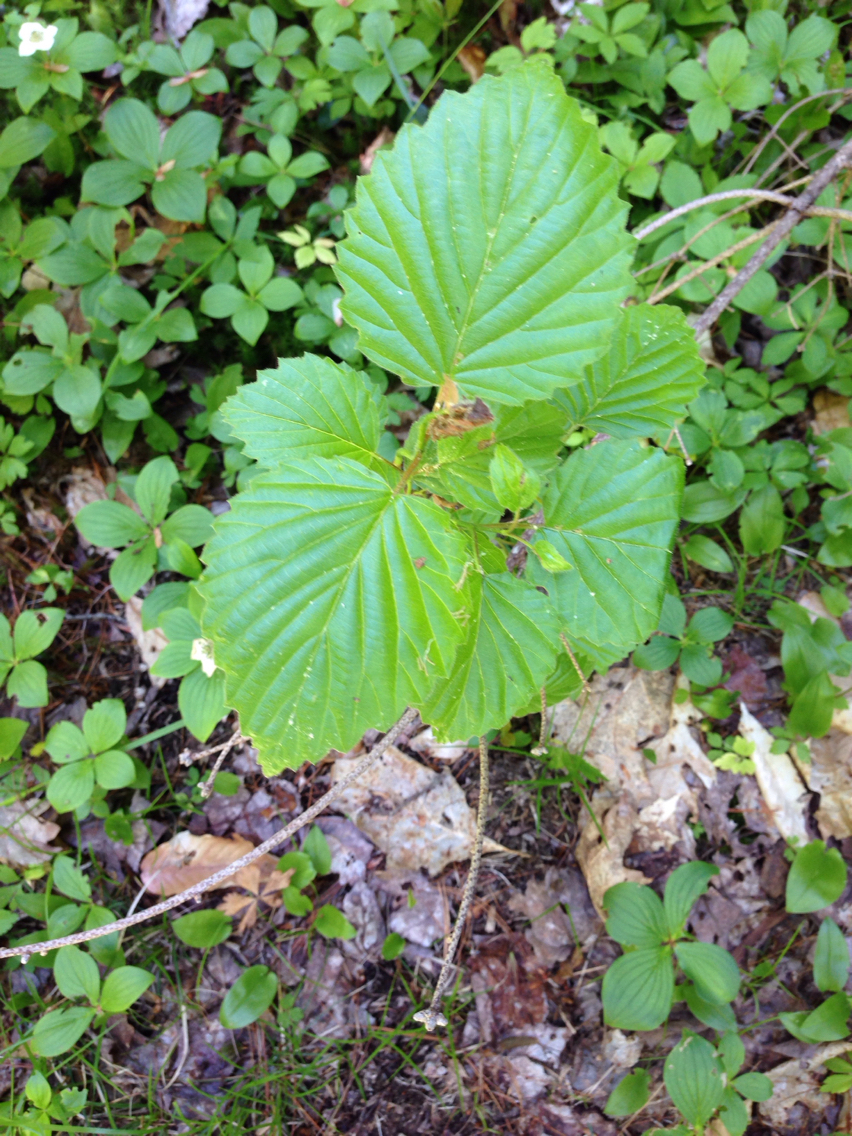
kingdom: Plantae
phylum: Tracheophyta
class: Magnoliopsida
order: Dipsacales
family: Viburnaceae
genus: Viburnum
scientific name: Viburnum dentatum
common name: Arrow-wood
